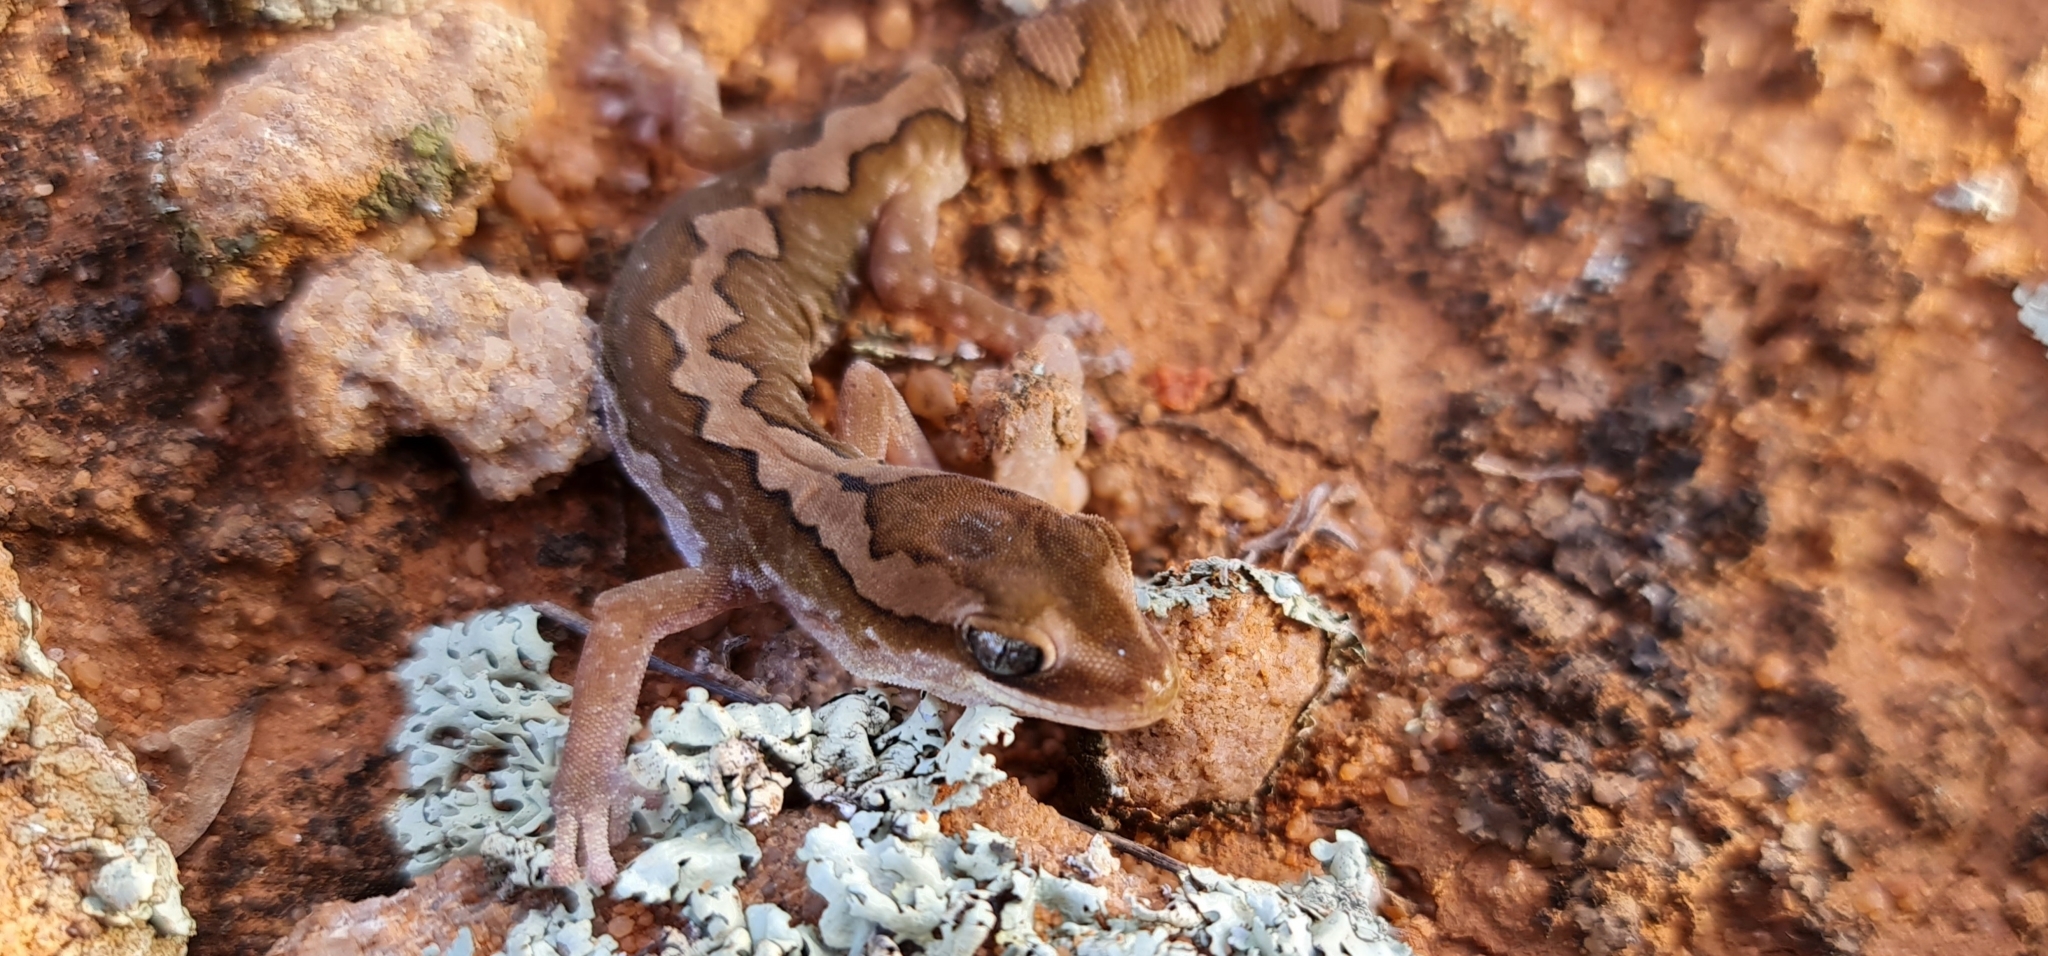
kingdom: Animalia
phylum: Chordata
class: Squamata
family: Diplodactylidae
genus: Diplodactylus
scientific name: Diplodactylus furcosus
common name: Ranges stone gecko
